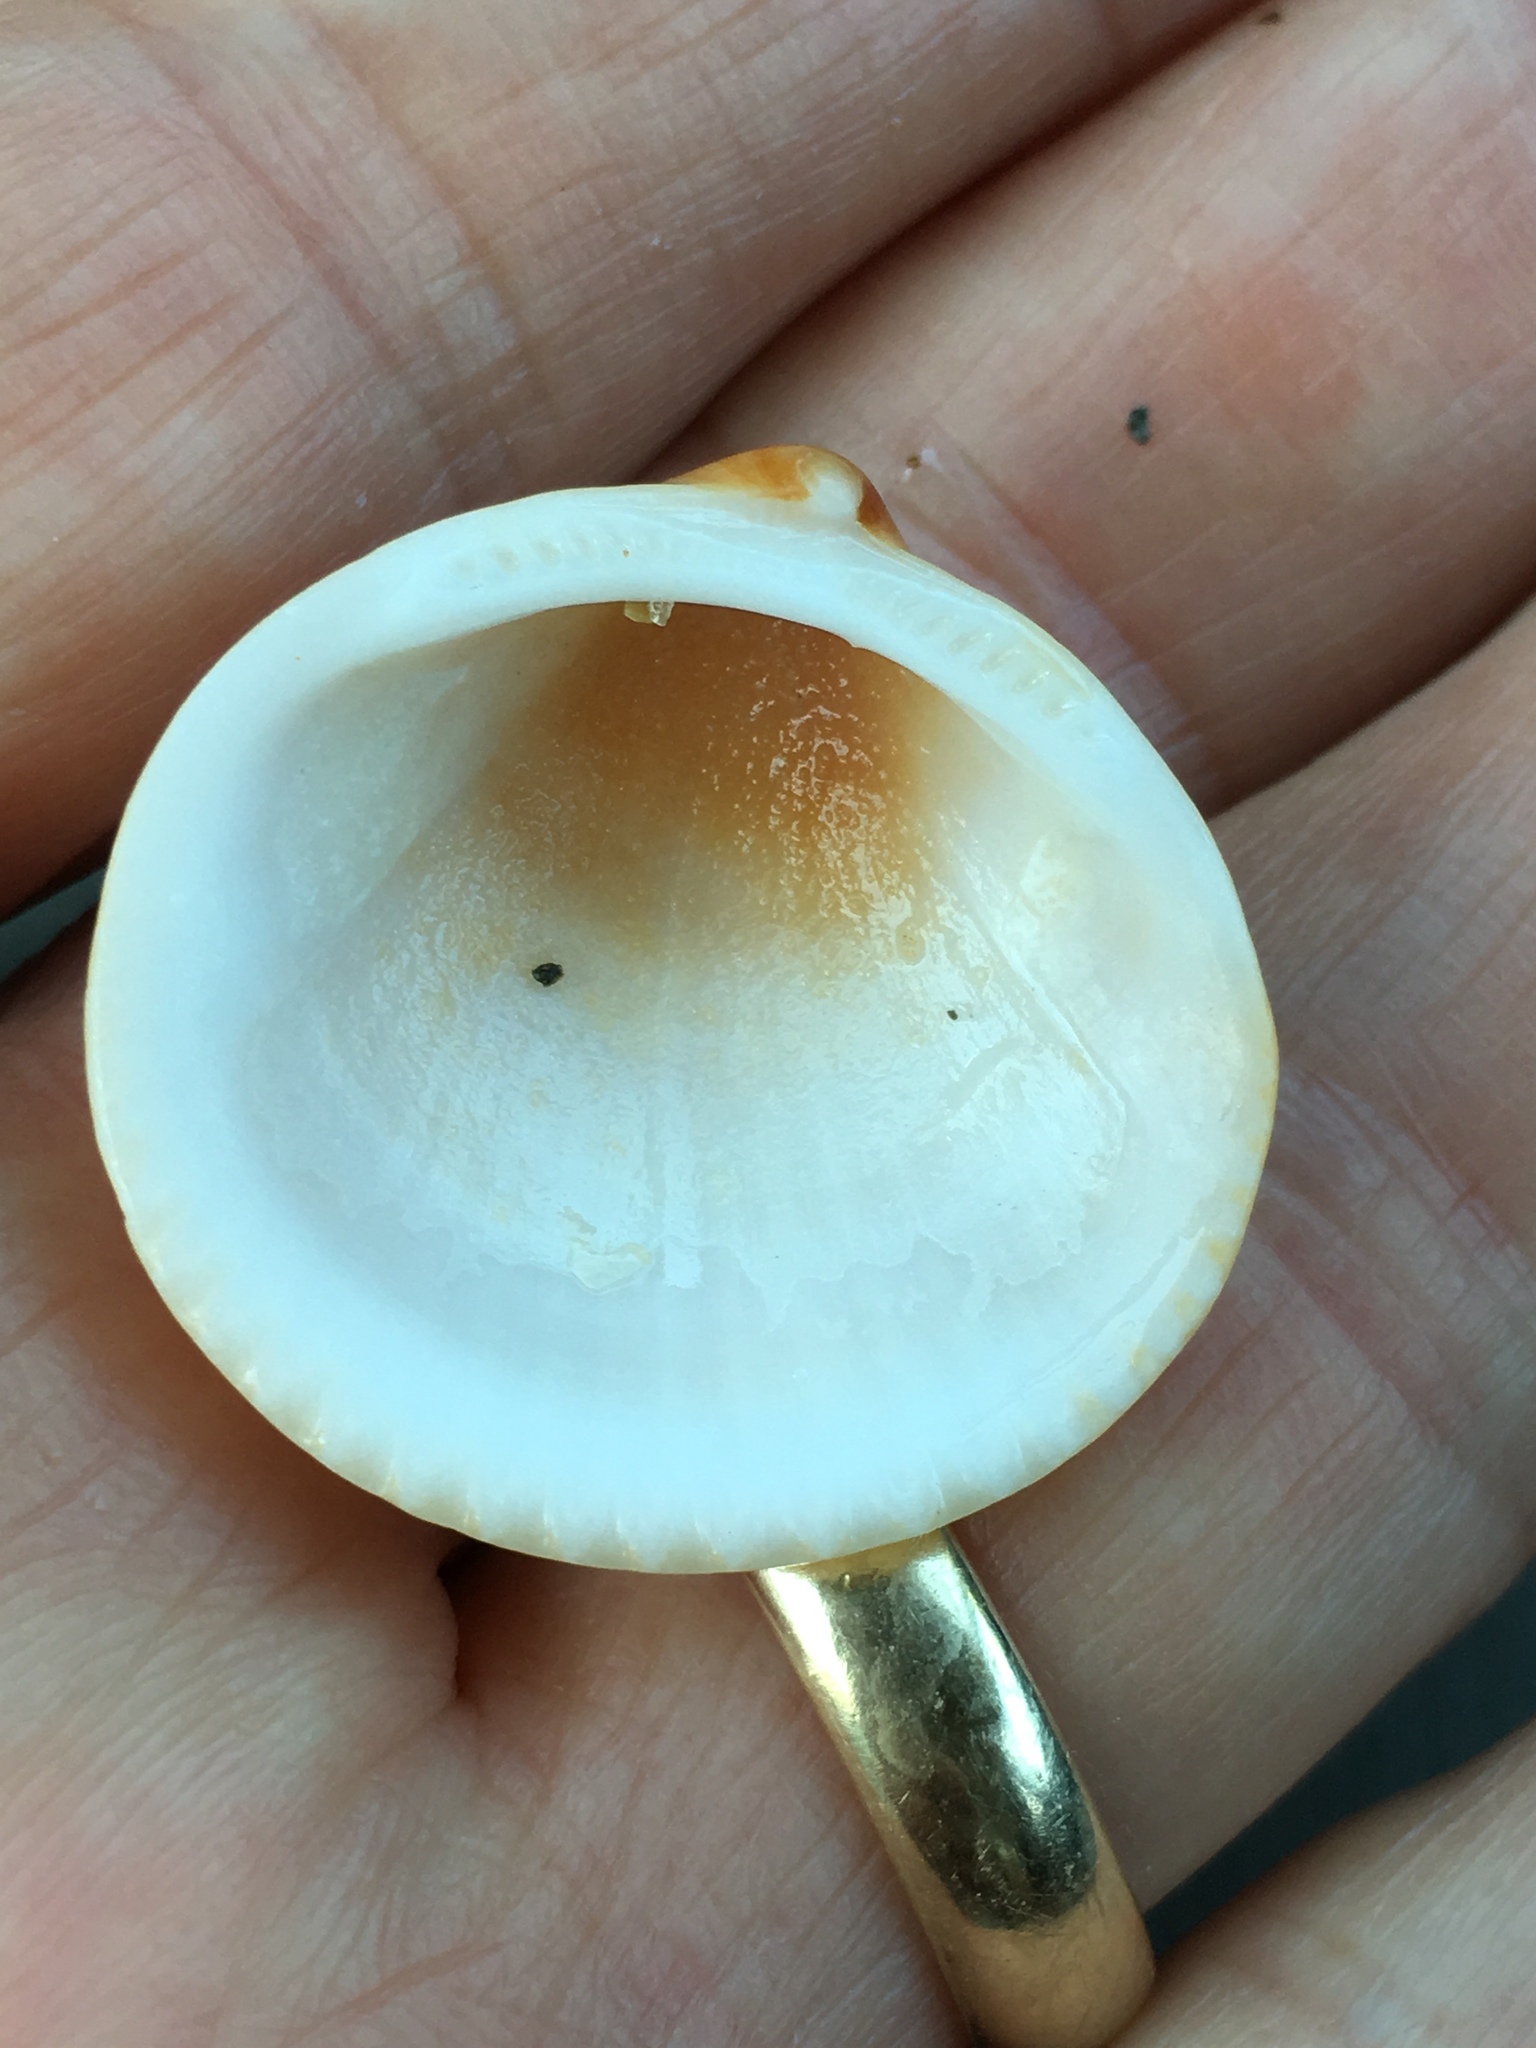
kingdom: Animalia
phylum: Mollusca
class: Bivalvia
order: Arcida
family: Glycymerididae
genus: Glycymeris
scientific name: Glycymeris spectralis
